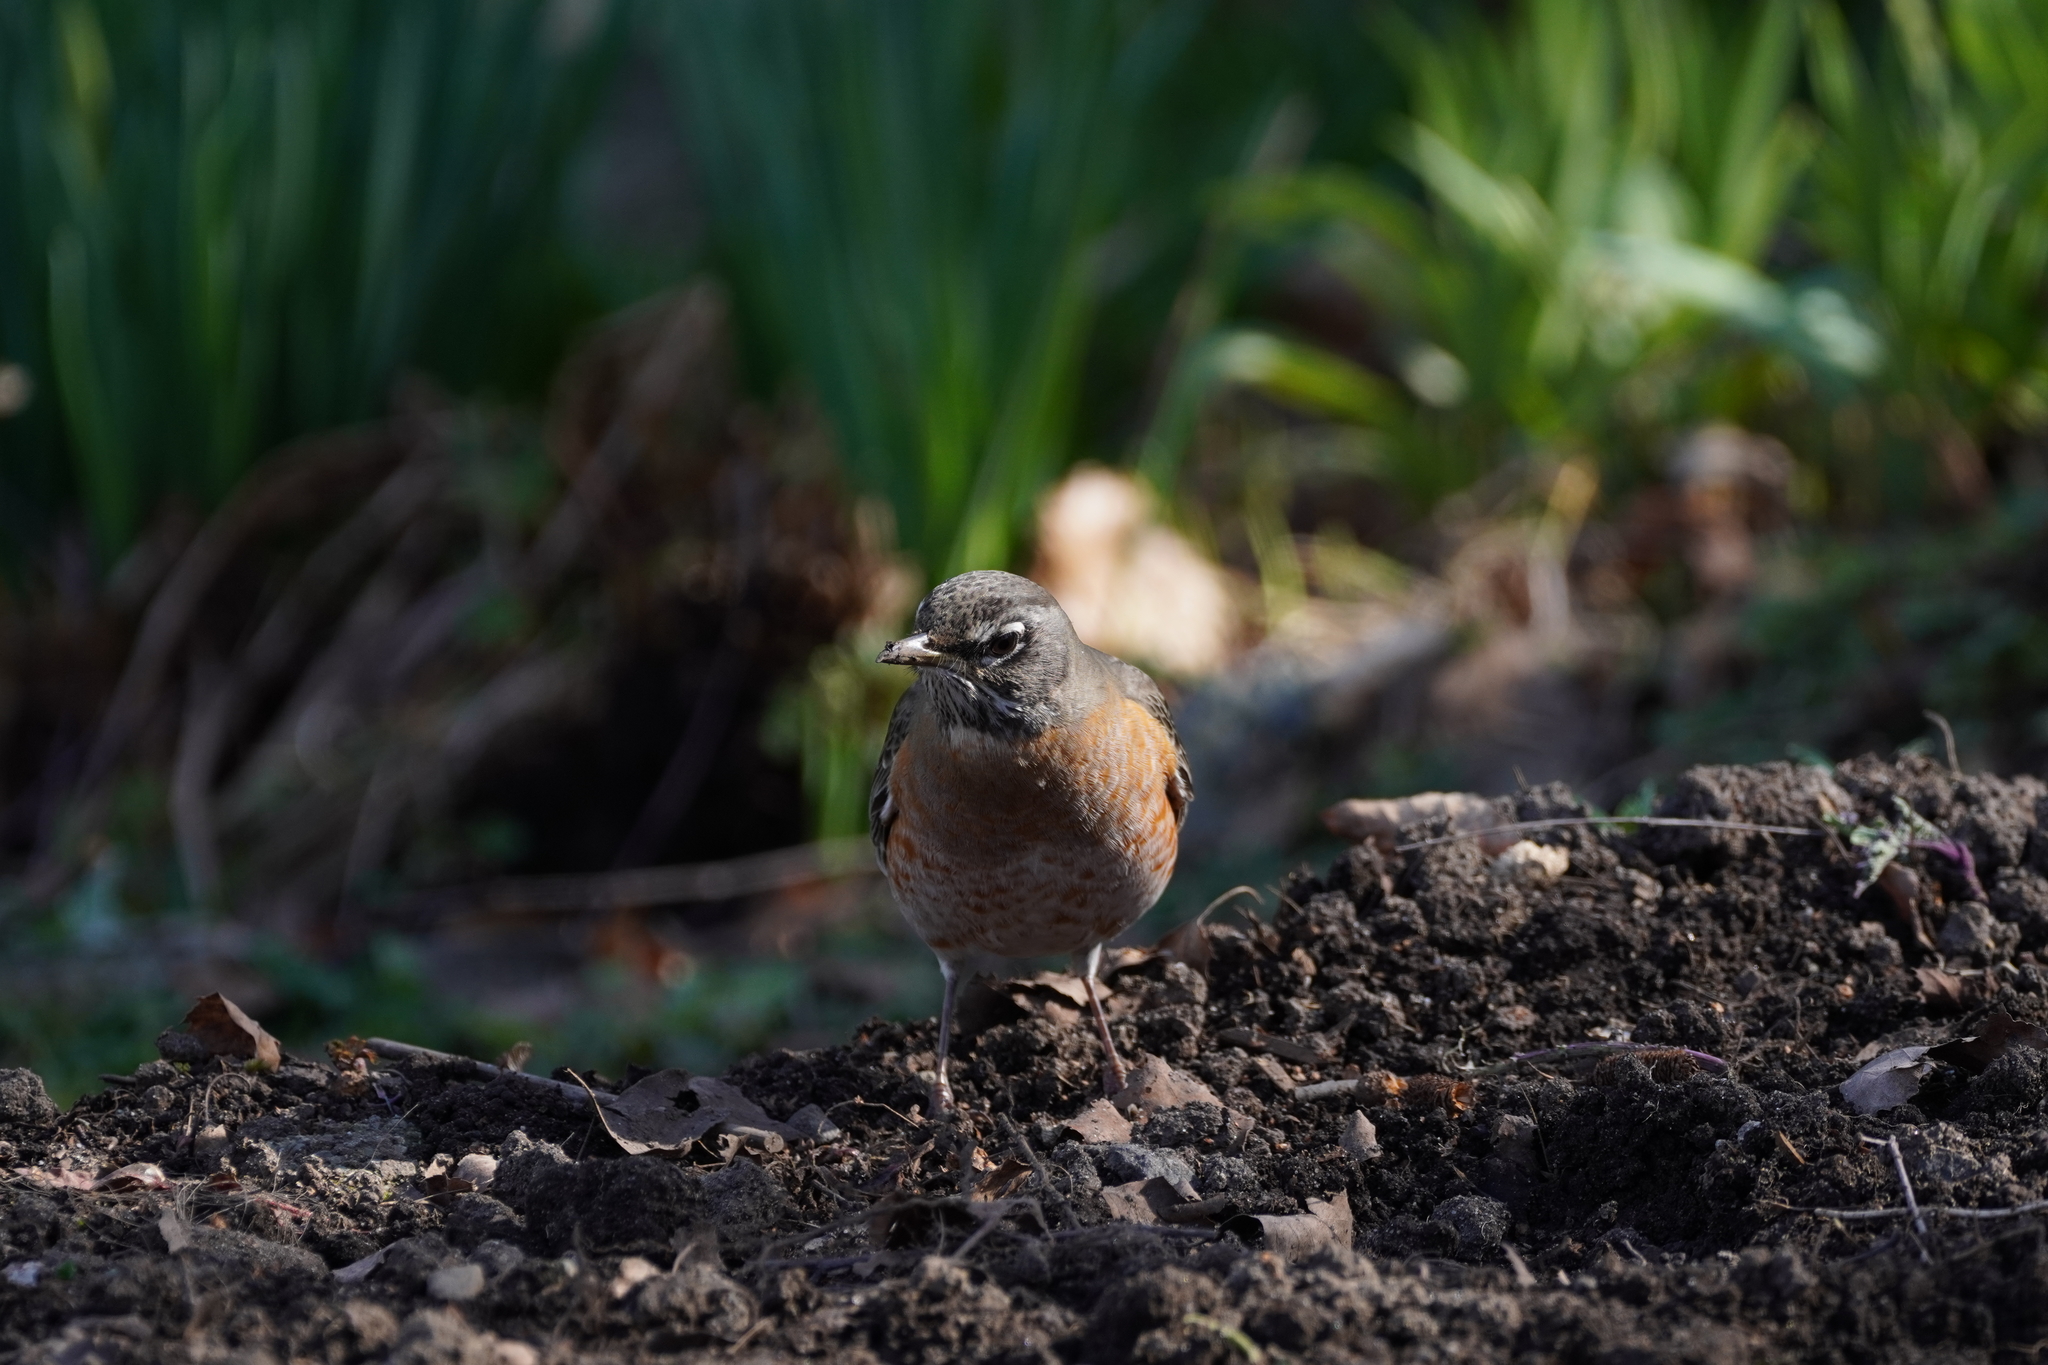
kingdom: Animalia
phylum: Chordata
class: Aves
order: Passeriformes
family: Turdidae
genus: Turdus
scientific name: Turdus migratorius
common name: American robin
